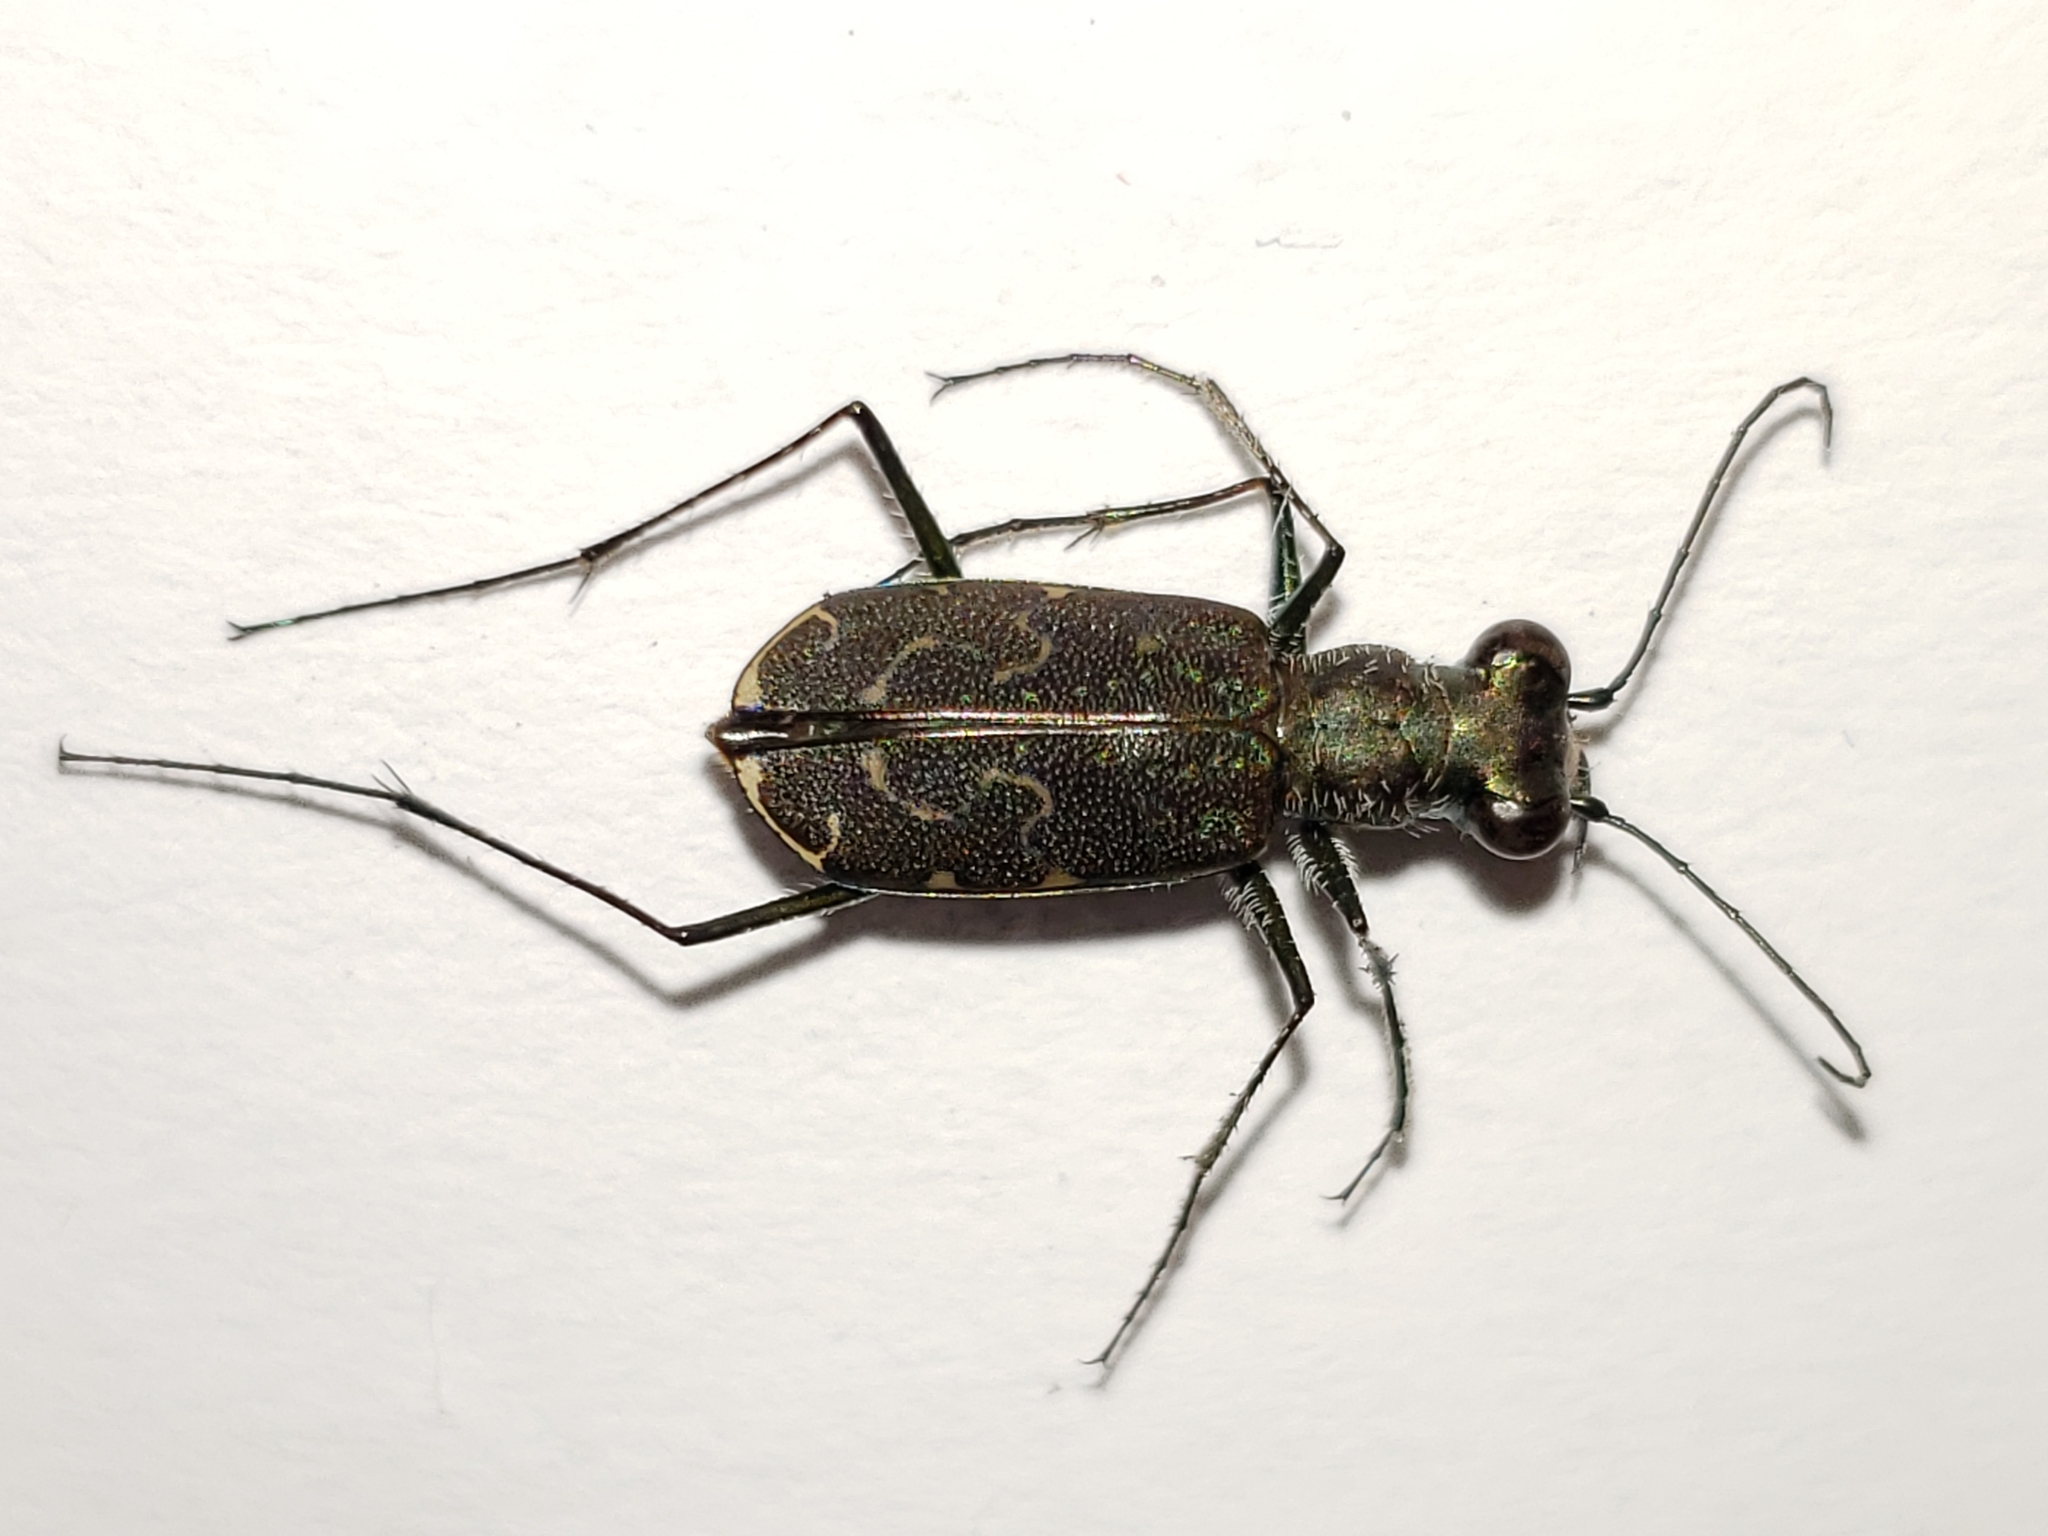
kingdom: Animalia
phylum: Arthropoda
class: Insecta
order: Coleoptera
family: Carabidae
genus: Cicindela
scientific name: Cicindela trifasciata
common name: Mudflat tiger beetle
